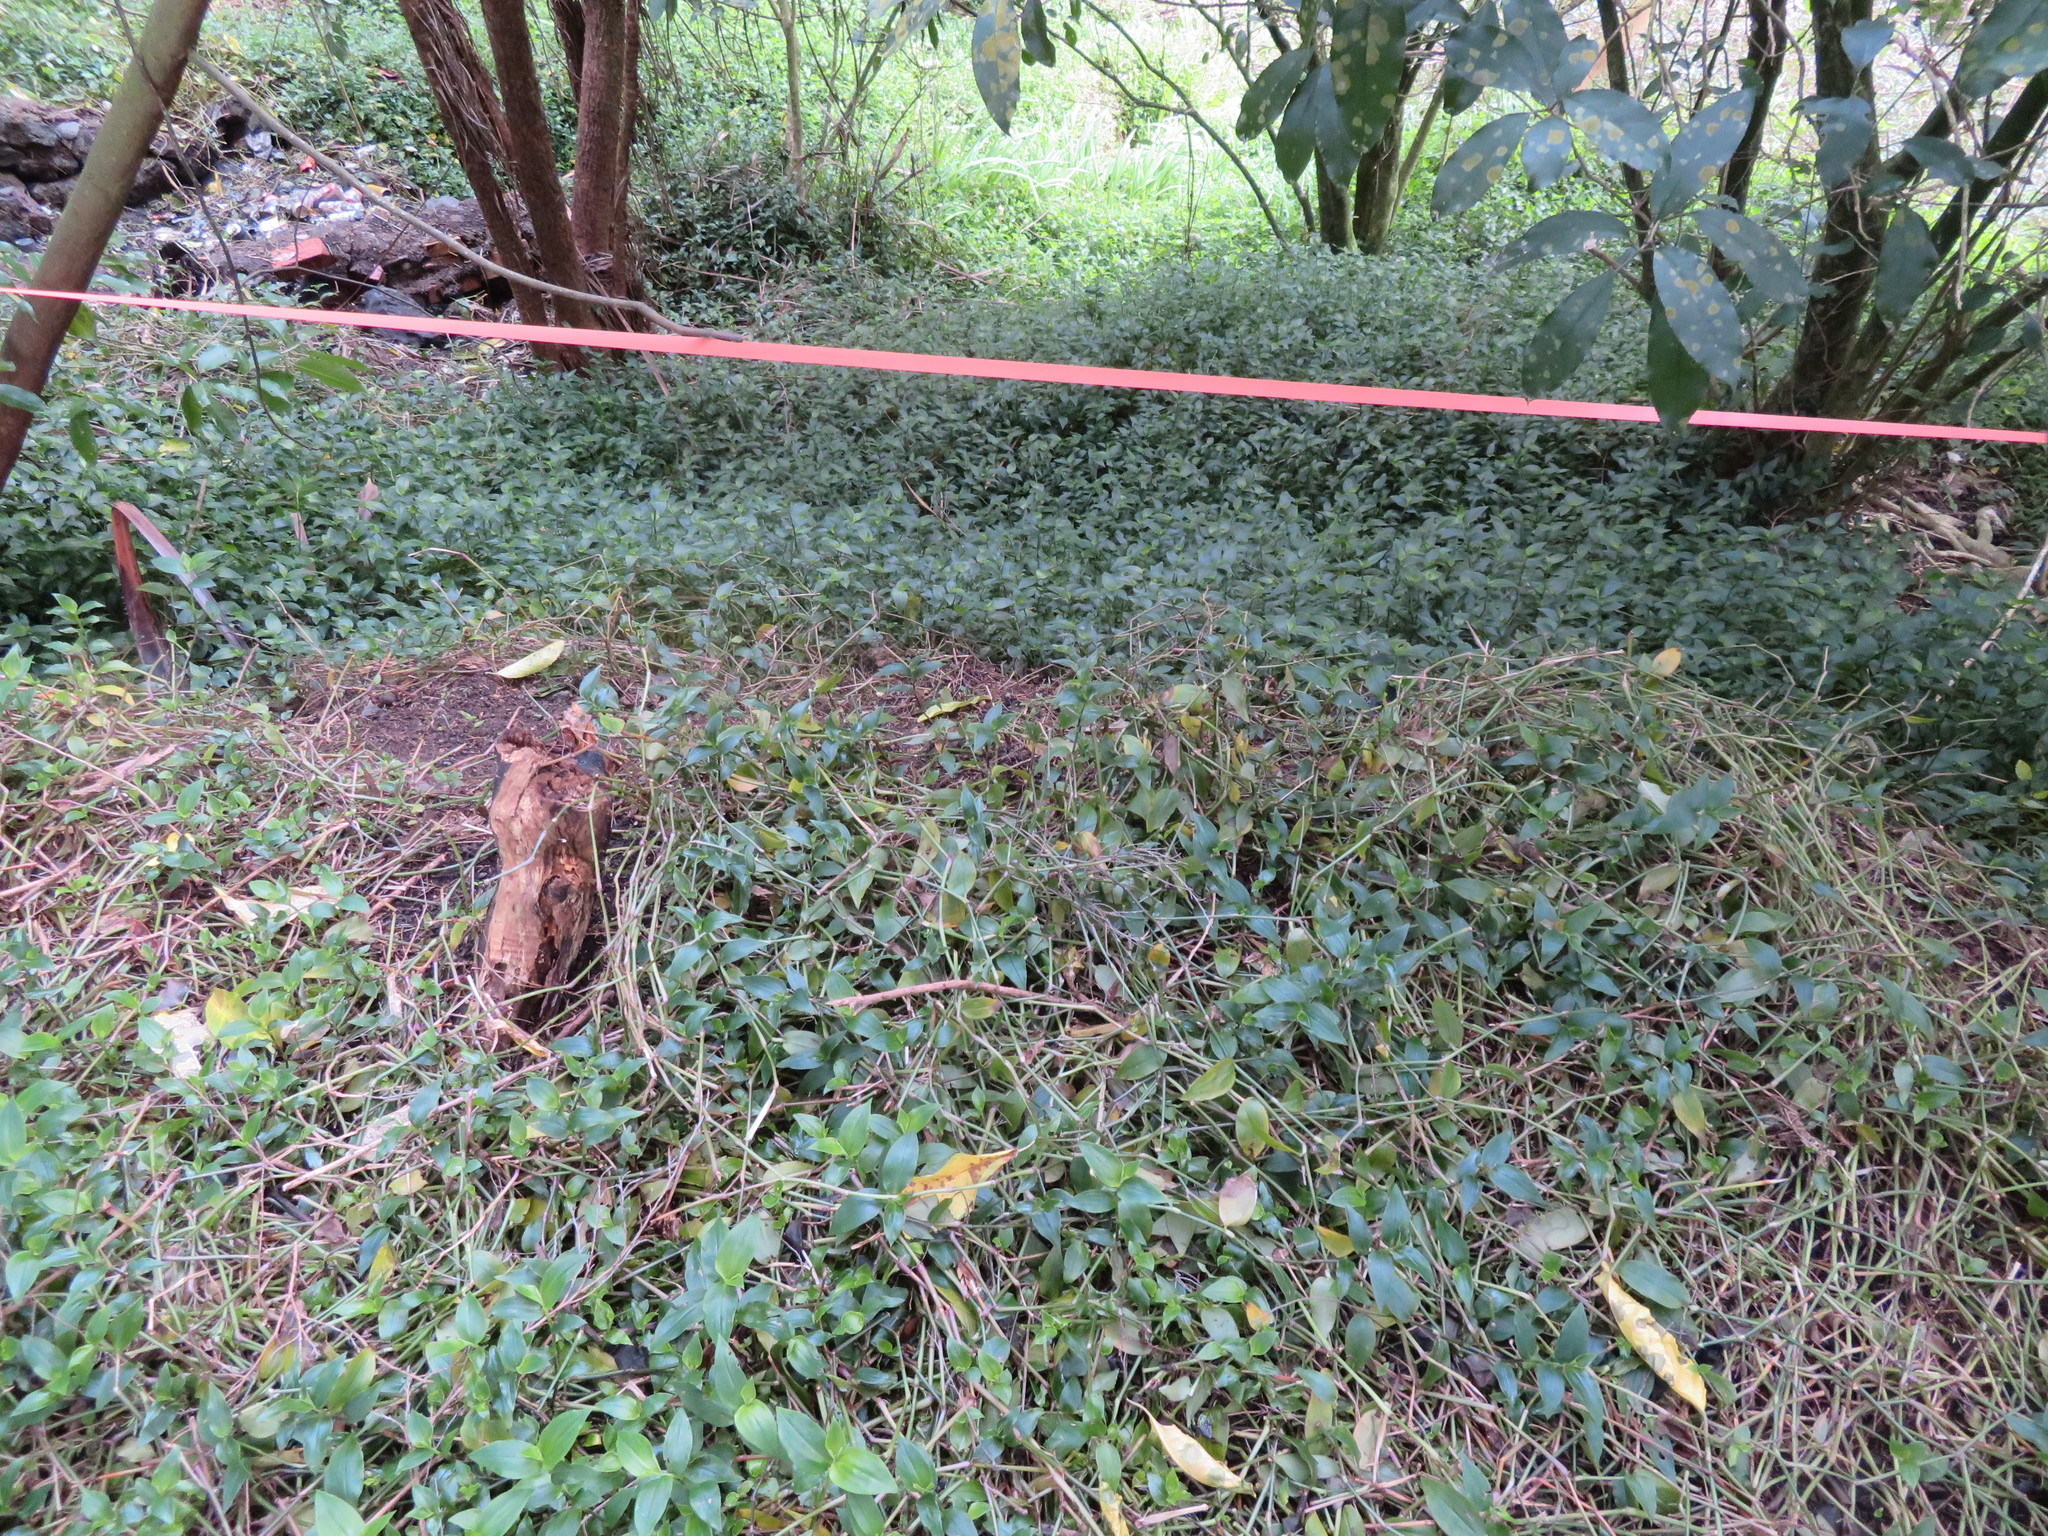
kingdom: Plantae
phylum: Tracheophyta
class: Liliopsida
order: Commelinales
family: Commelinaceae
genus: Tradescantia
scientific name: Tradescantia fluminensis
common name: Wandering-jew
